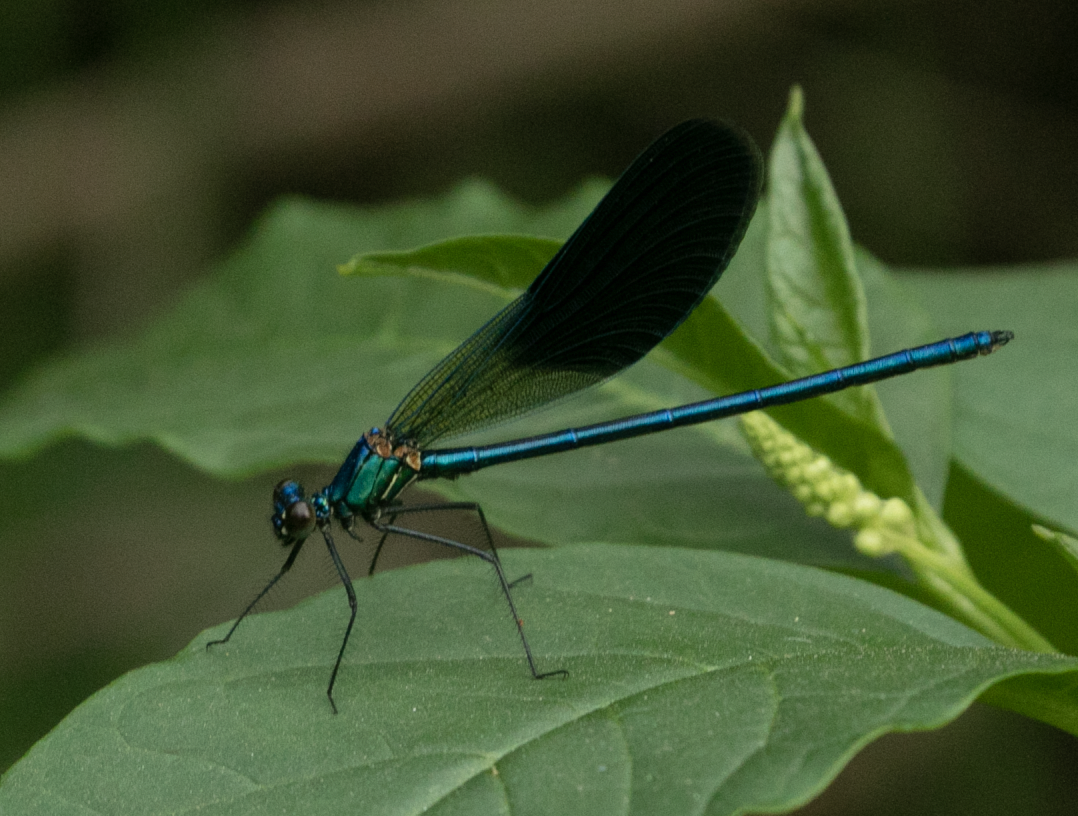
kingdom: Animalia
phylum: Arthropoda
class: Insecta
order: Odonata
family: Calopterygidae
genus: Calopteryx
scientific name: Calopteryx splendens
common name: Banded demoiselle
